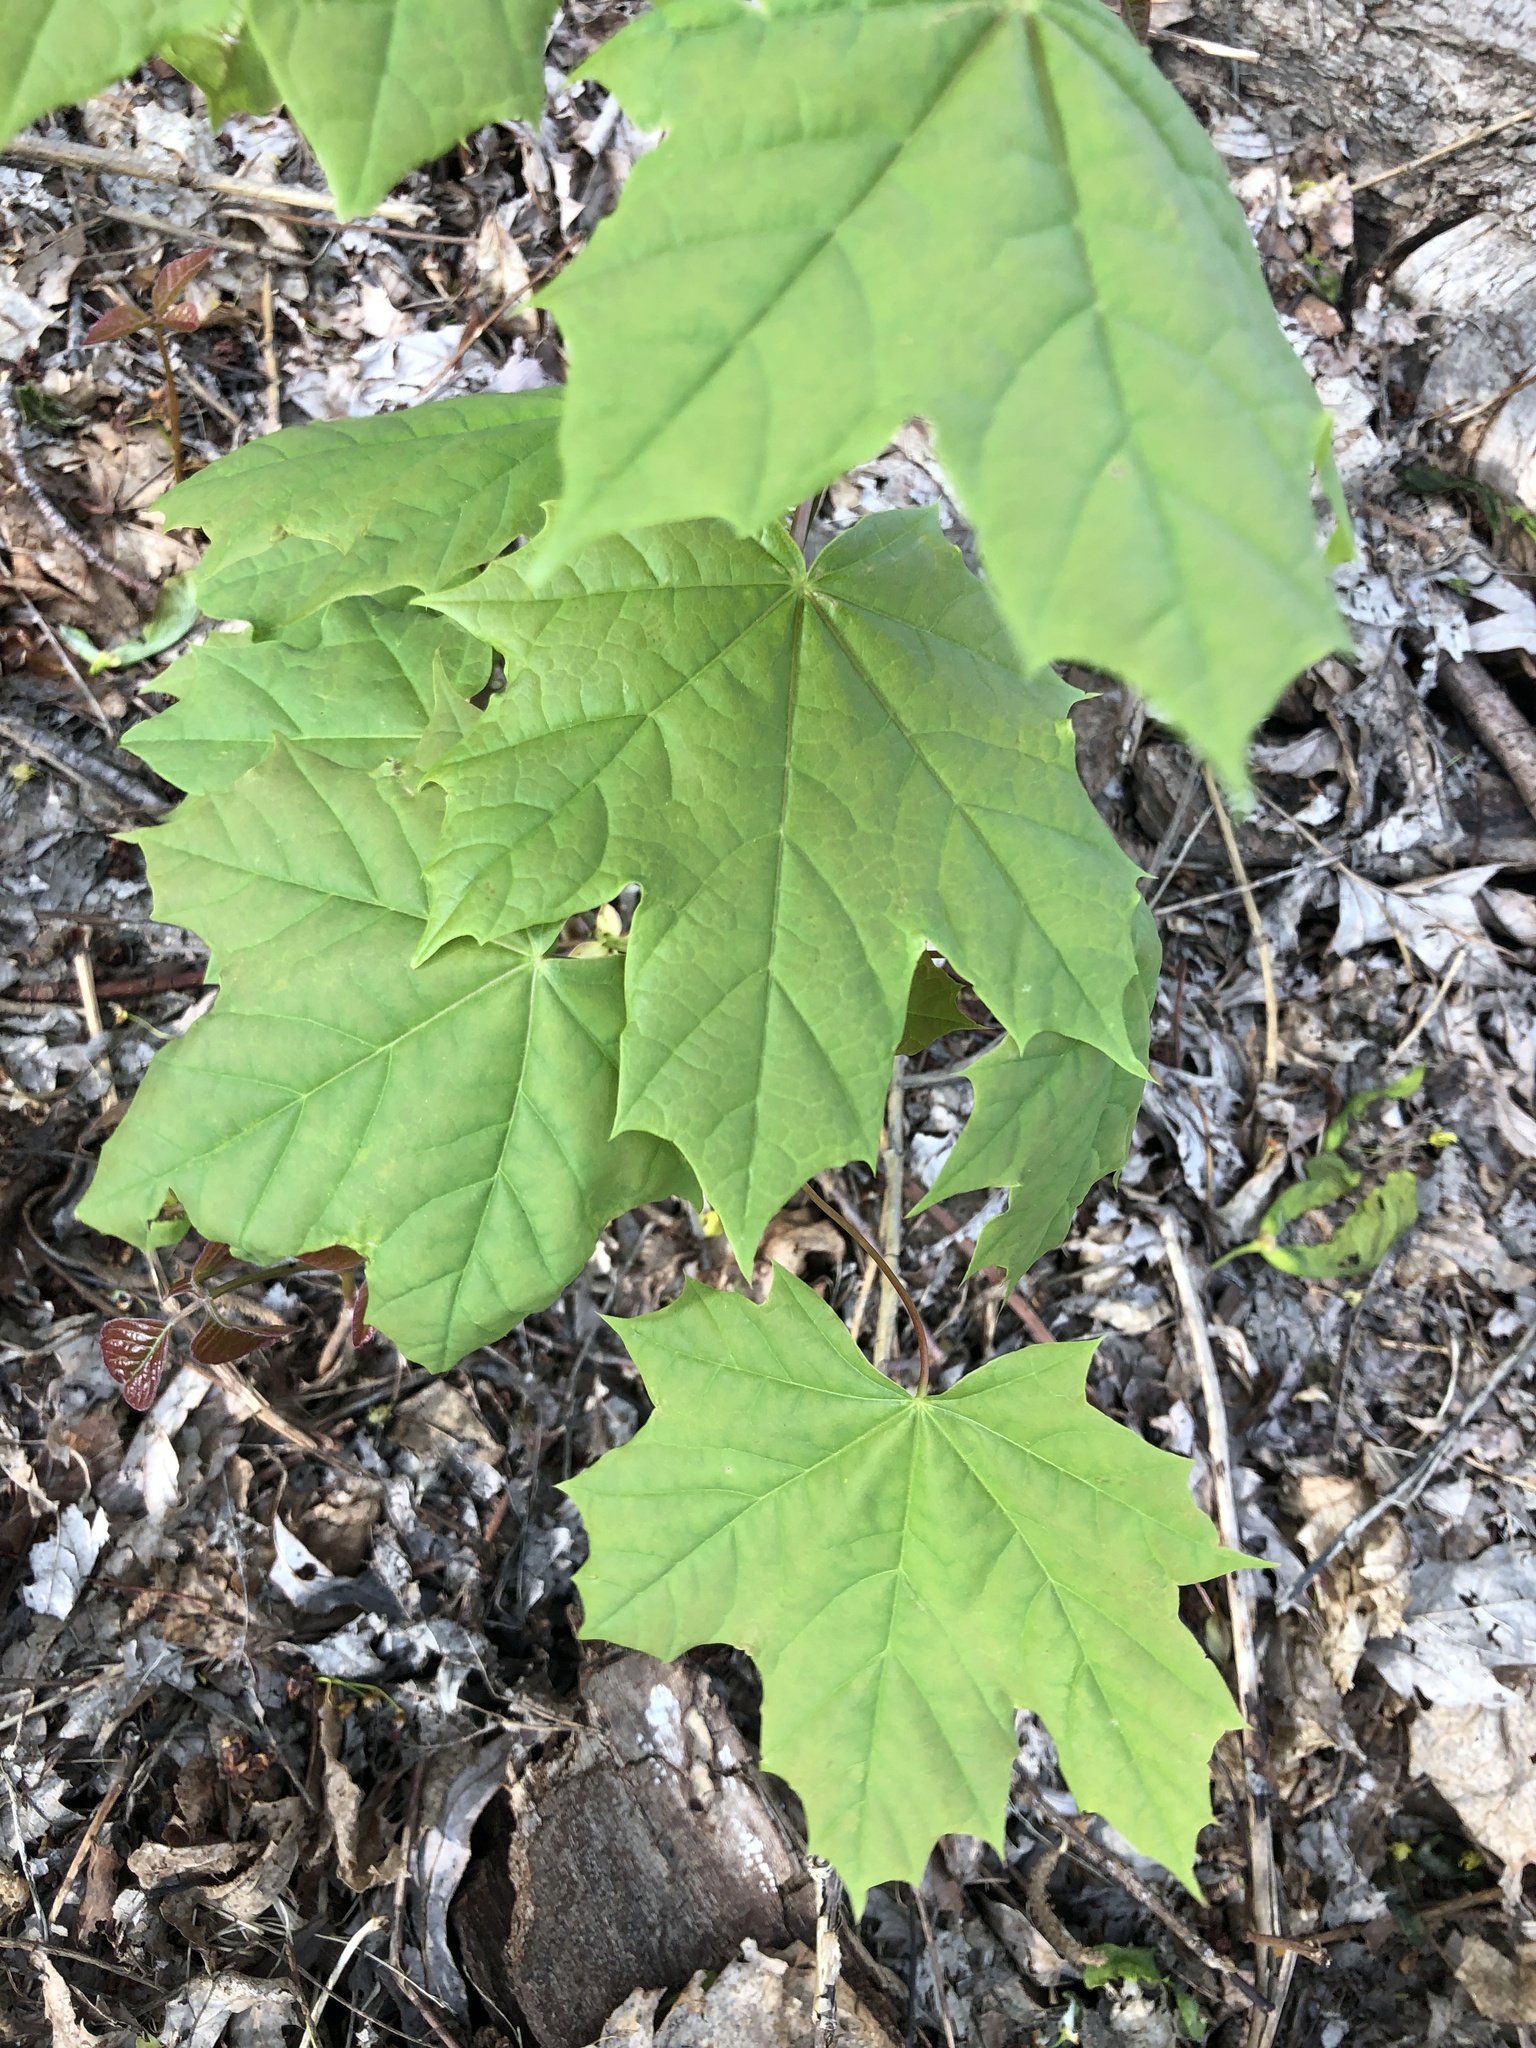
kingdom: Plantae
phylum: Tracheophyta
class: Magnoliopsida
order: Sapindales
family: Sapindaceae
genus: Acer
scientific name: Acer platanoides
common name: Norway maple
